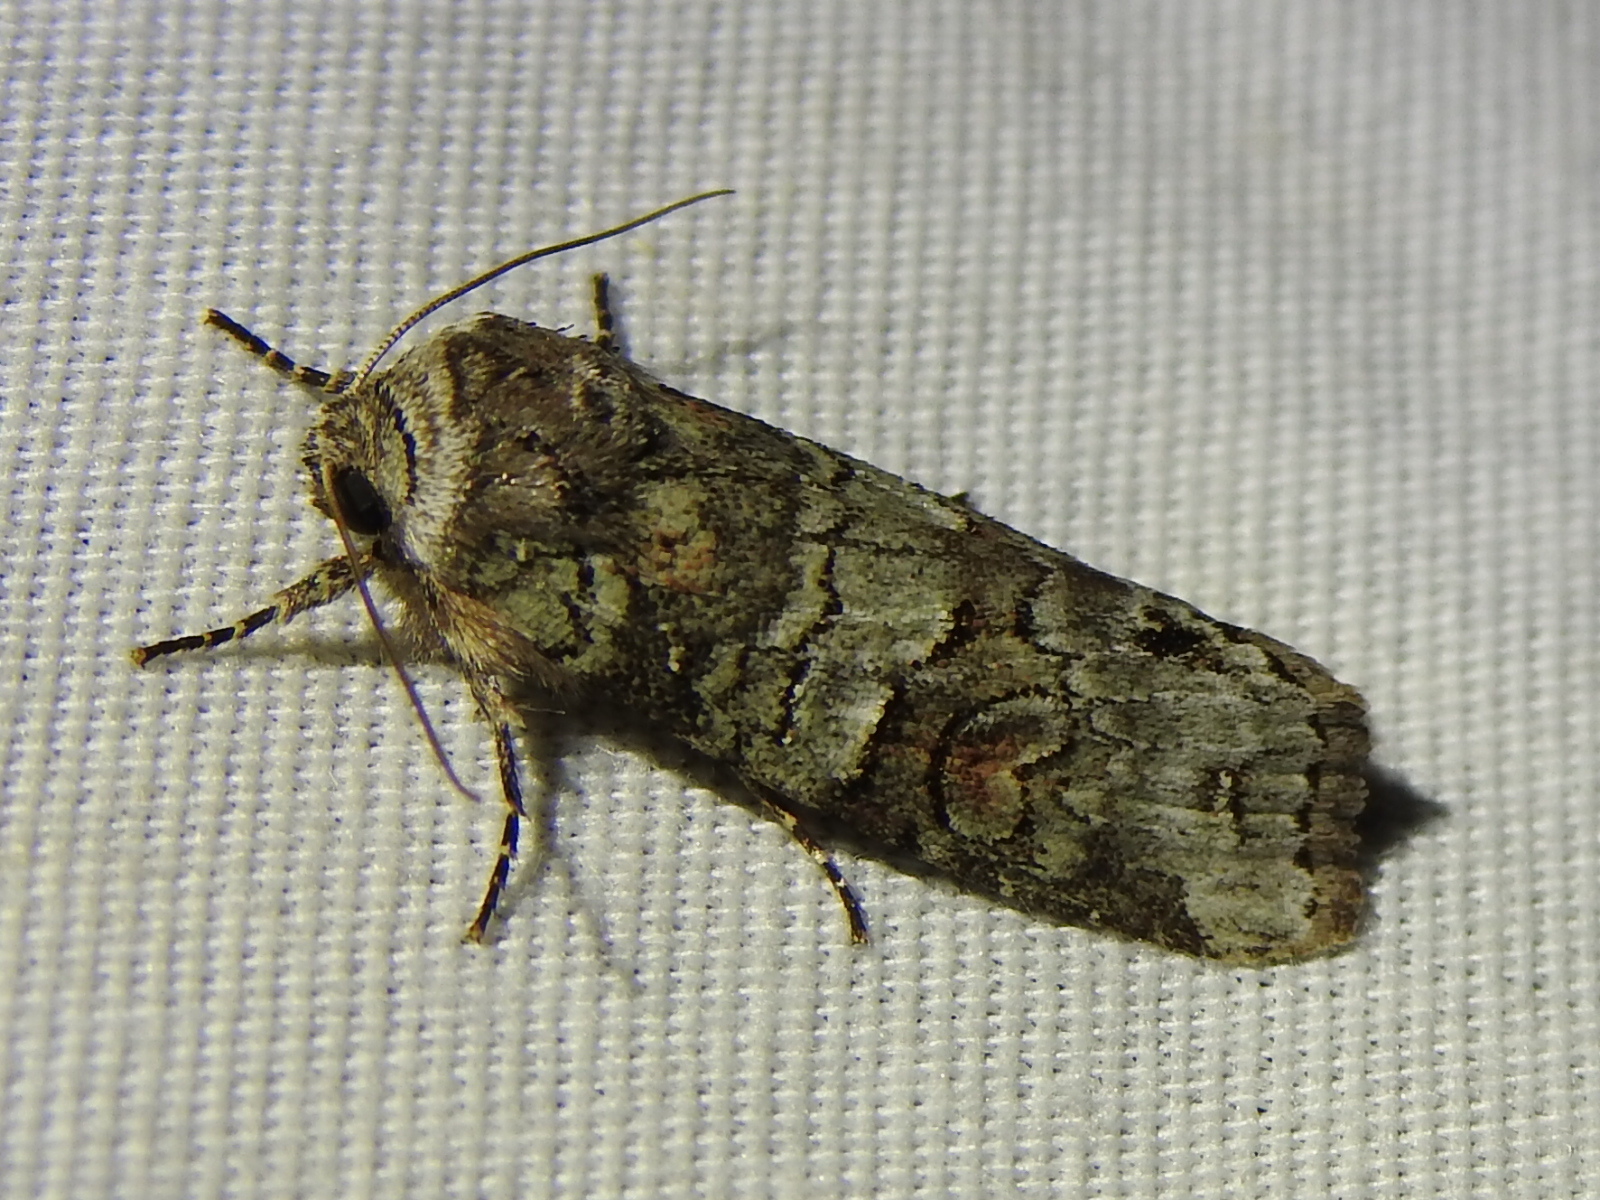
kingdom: Animalia
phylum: Arthropoda
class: Insecta
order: Lepidoptera
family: Noctuidae
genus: Egira
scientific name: Egira alternans
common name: Alternate woodling
